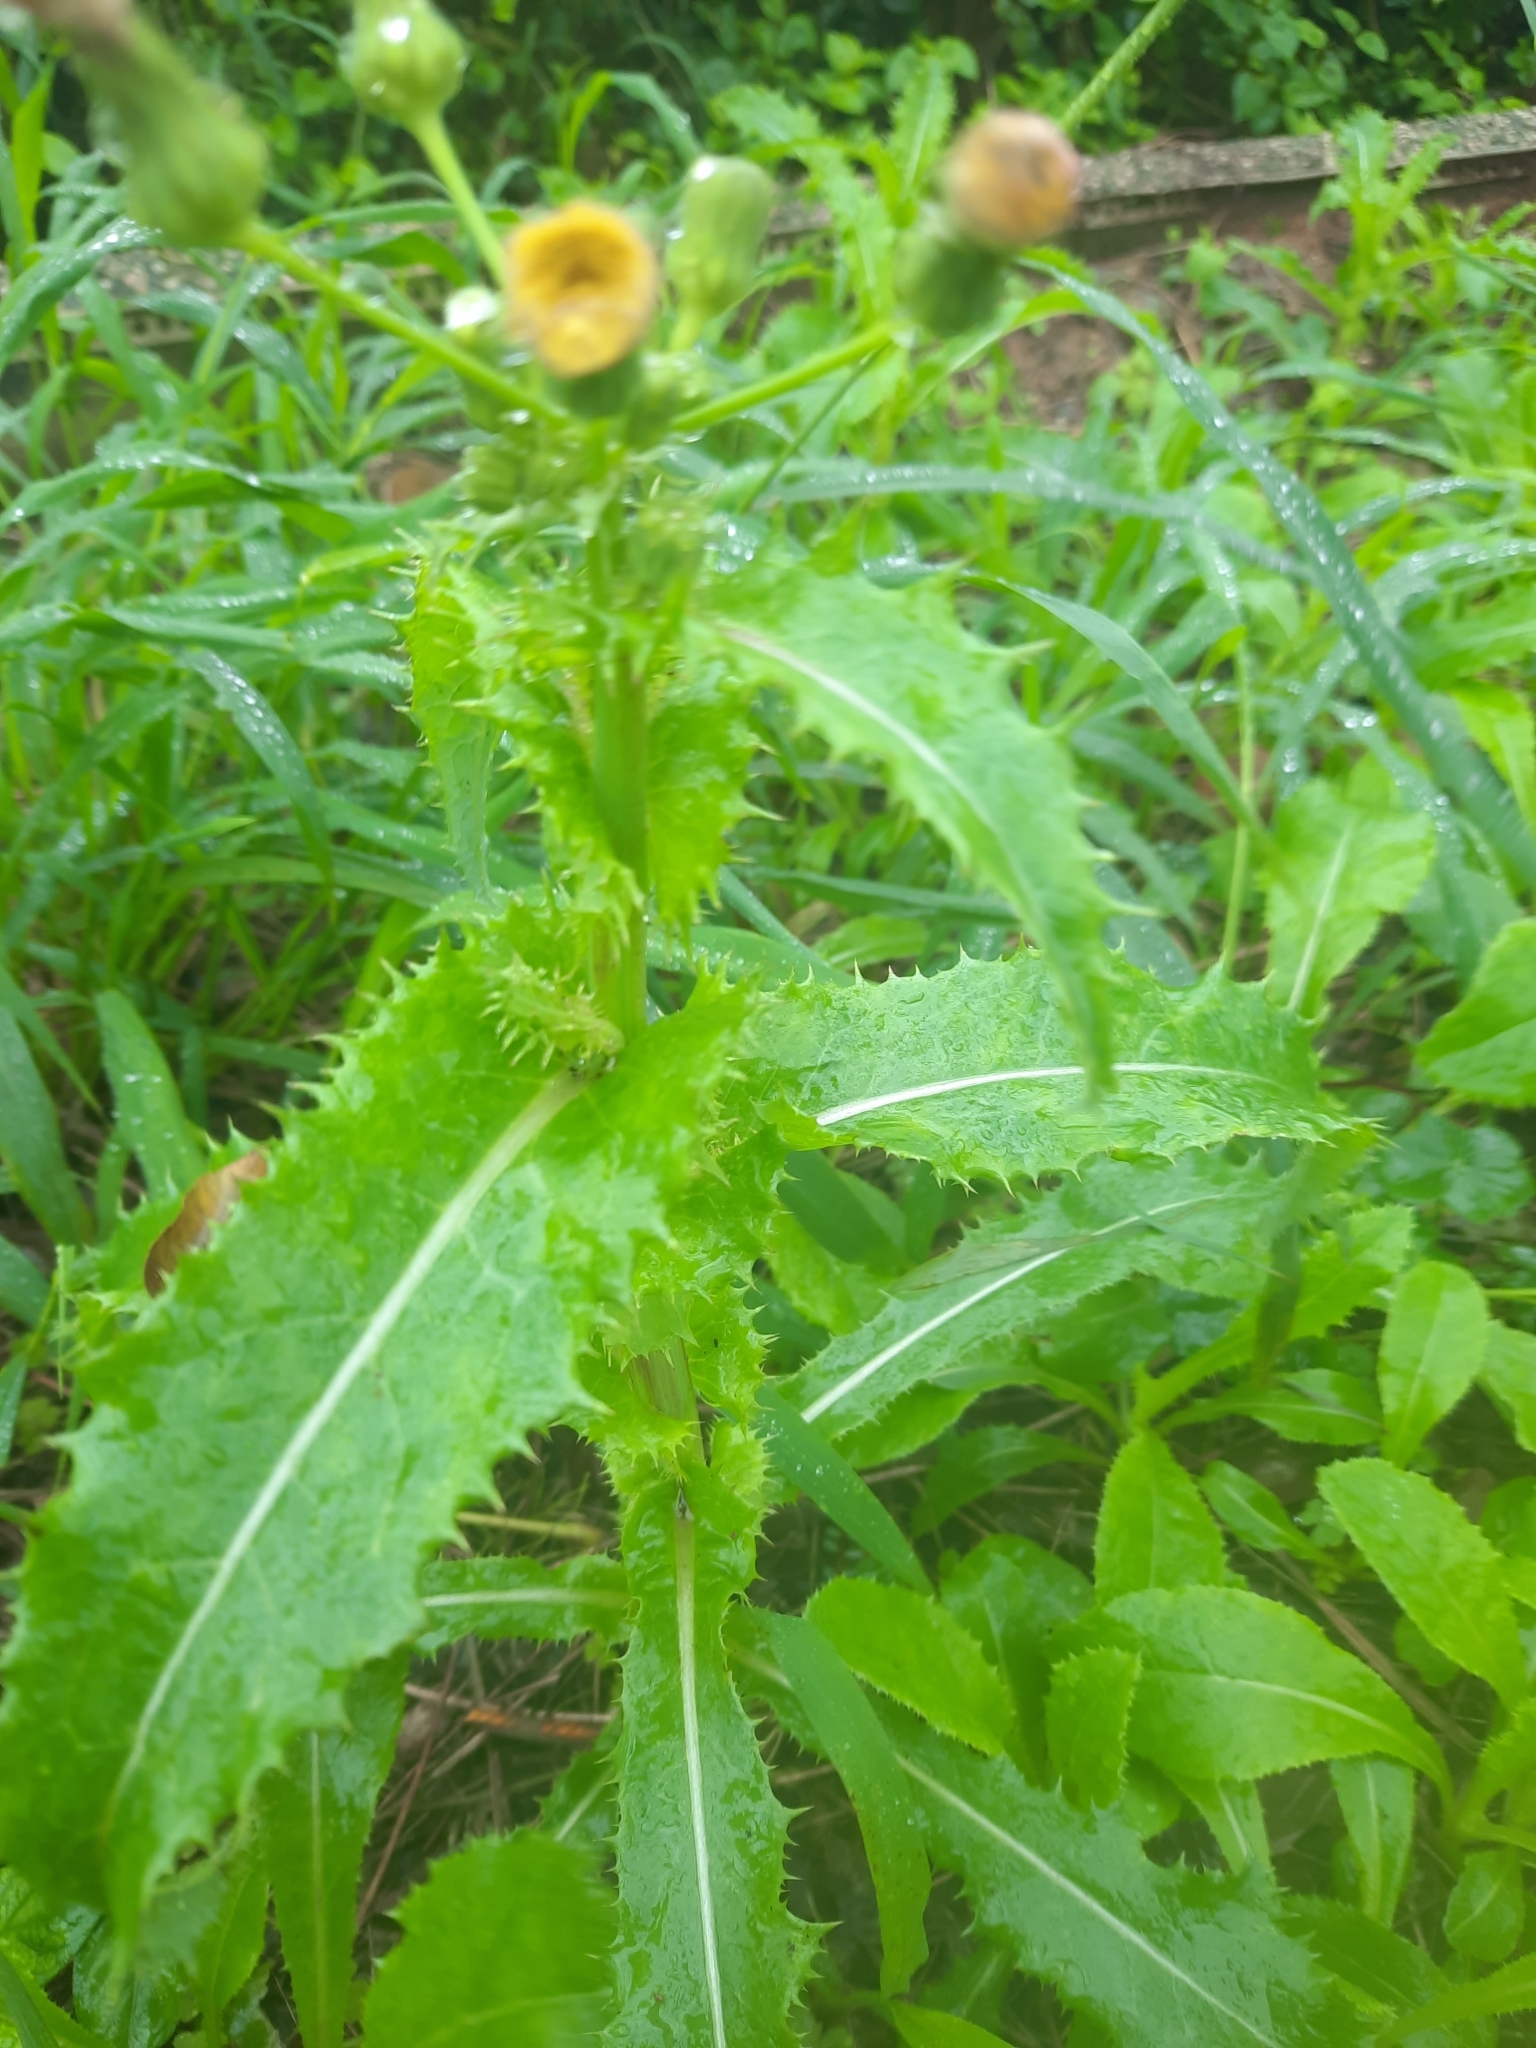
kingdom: Plantae
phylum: Tracheophyta
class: Magnoliopsida
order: Asterales
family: Asteraceae
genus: Sonchus
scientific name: Sonchus asper
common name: Prickly sow-thistle
